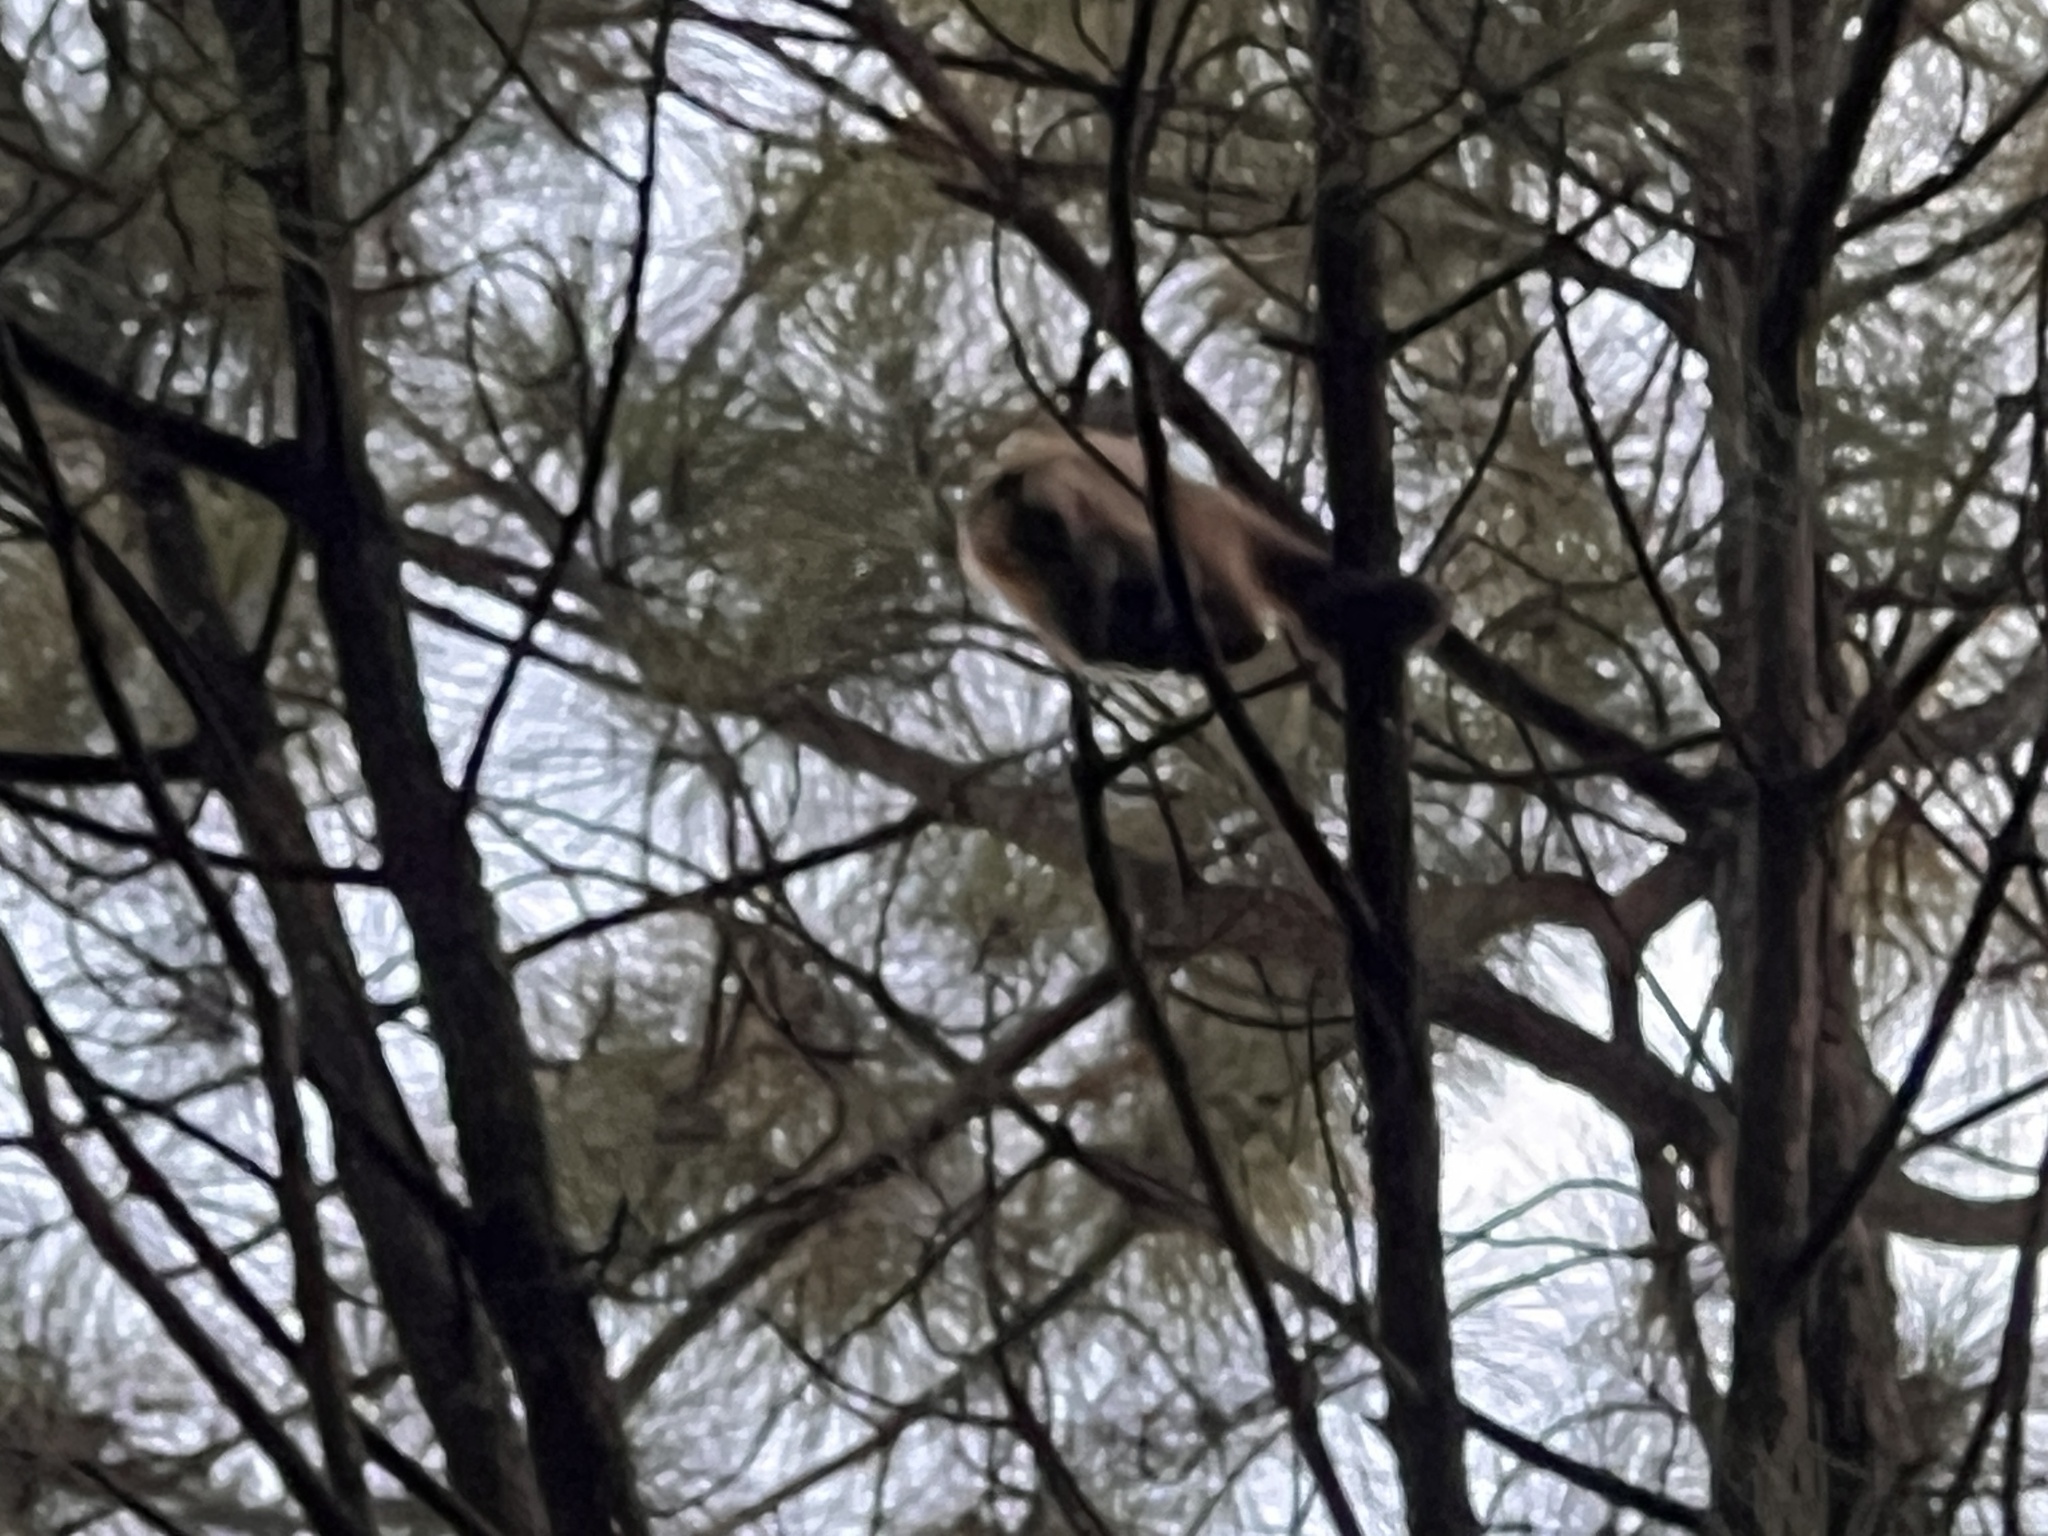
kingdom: Animalia
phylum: Chordata
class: Mammalia
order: Primates
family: Cebidae
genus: Sapajus
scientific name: Sapajus cay
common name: Hooded capuchin
